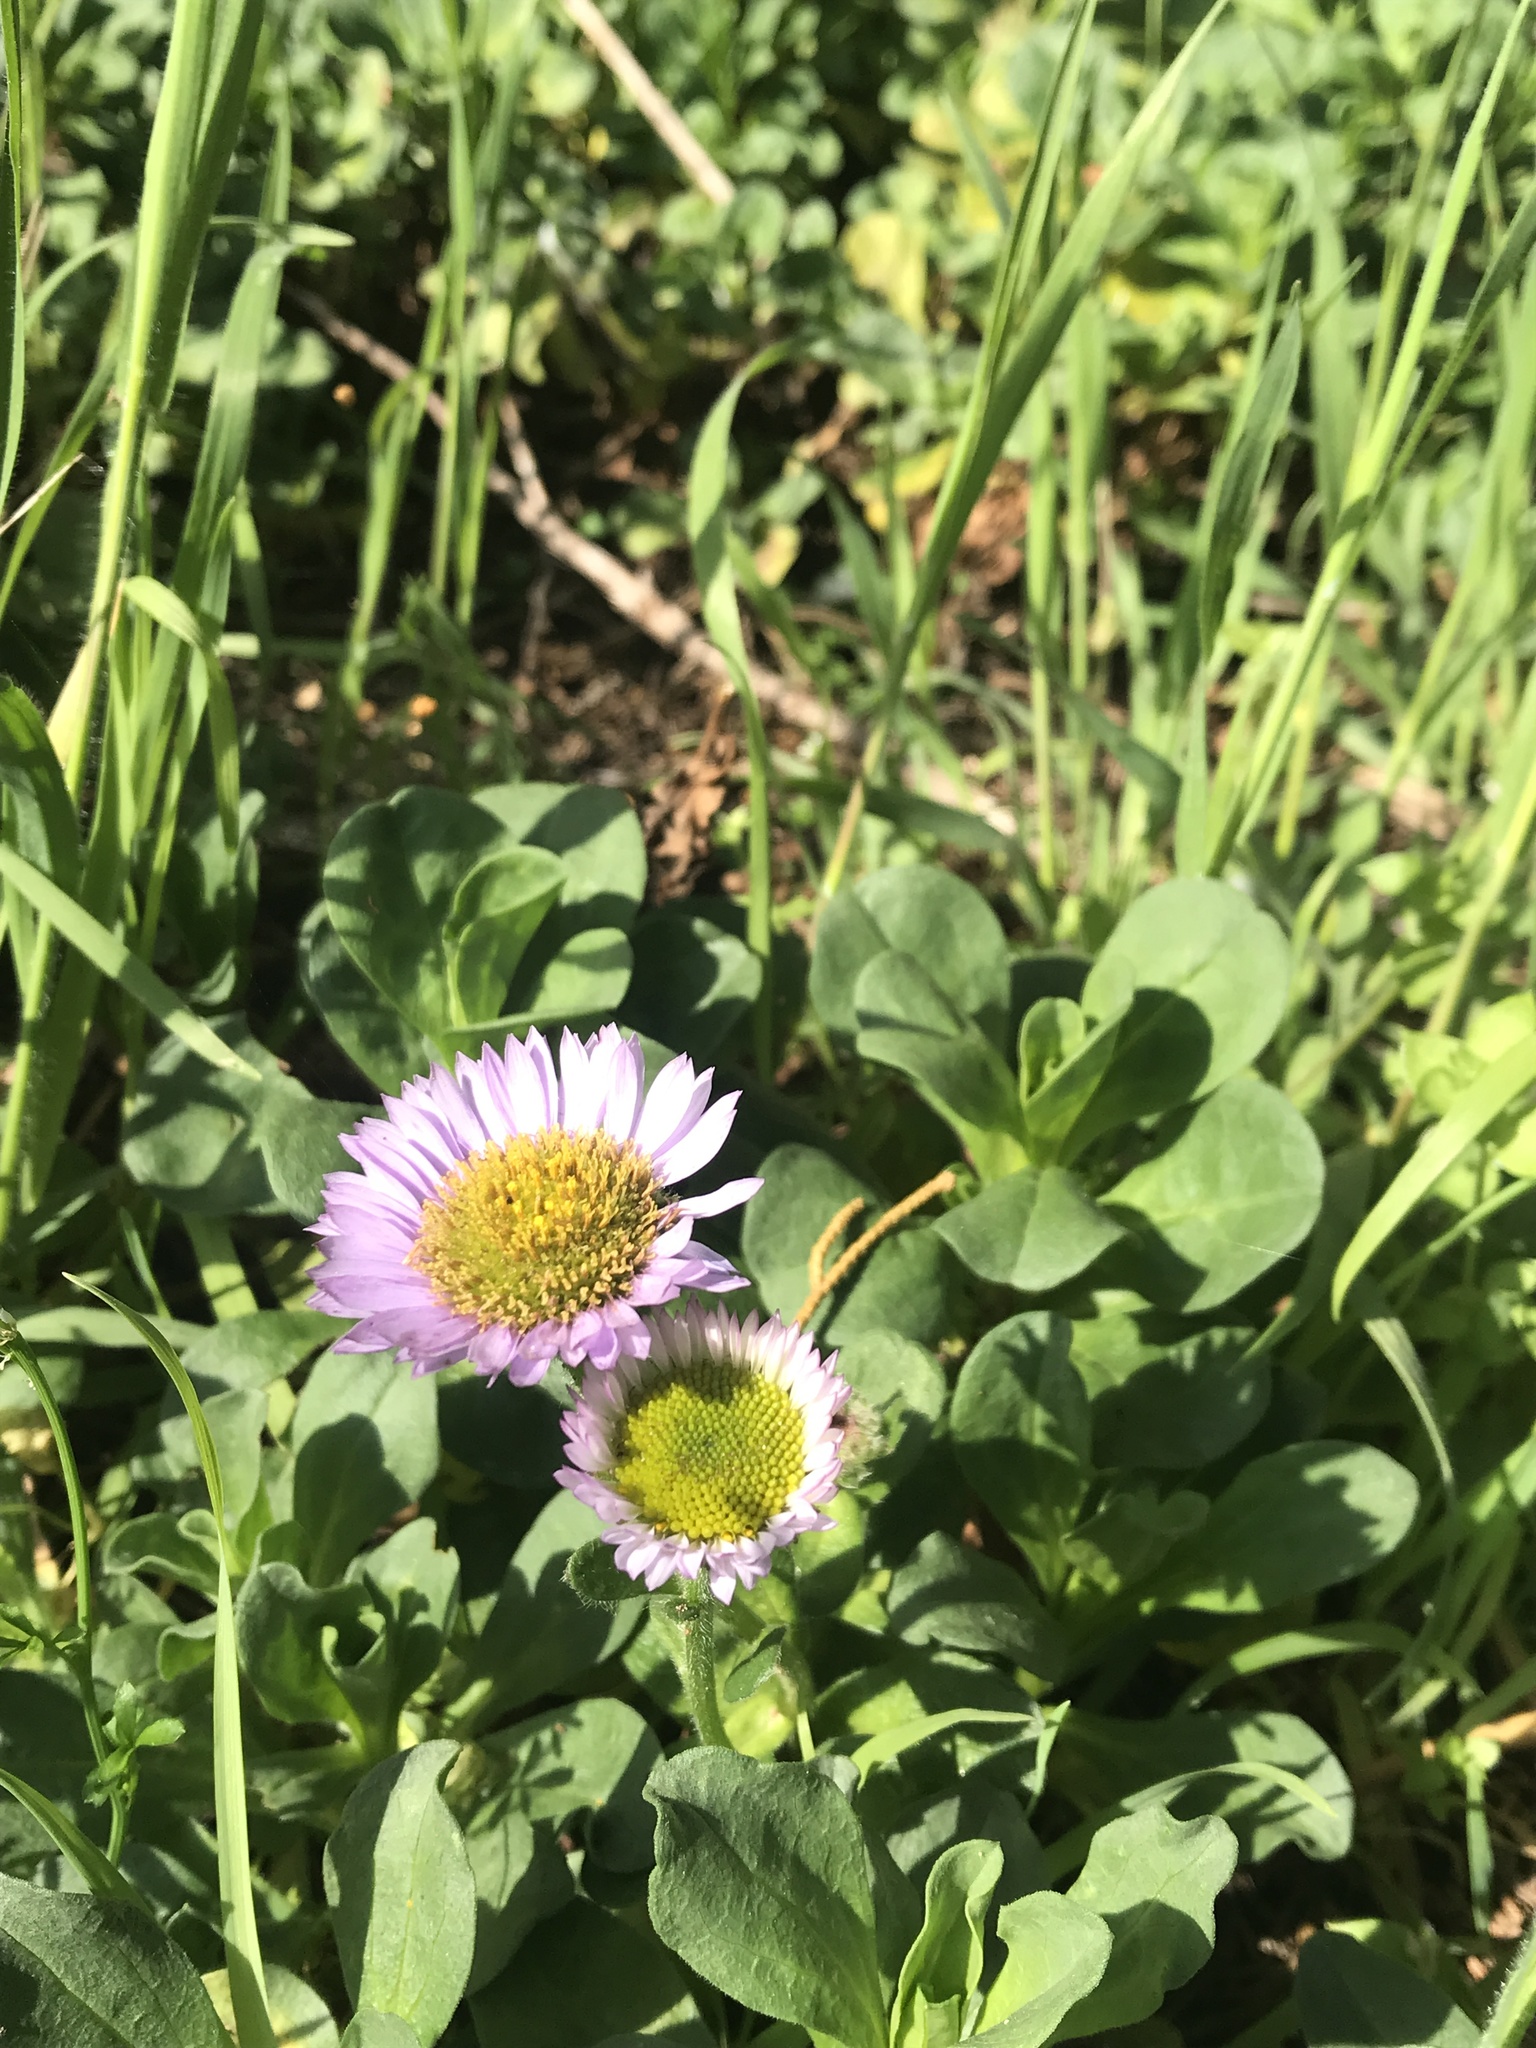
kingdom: Plantae
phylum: Tracheophyta
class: Magnoliopsida
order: Asterales
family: Asteraceae
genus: Erigeron
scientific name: Erigeron glaucus
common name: Seaside daisy
